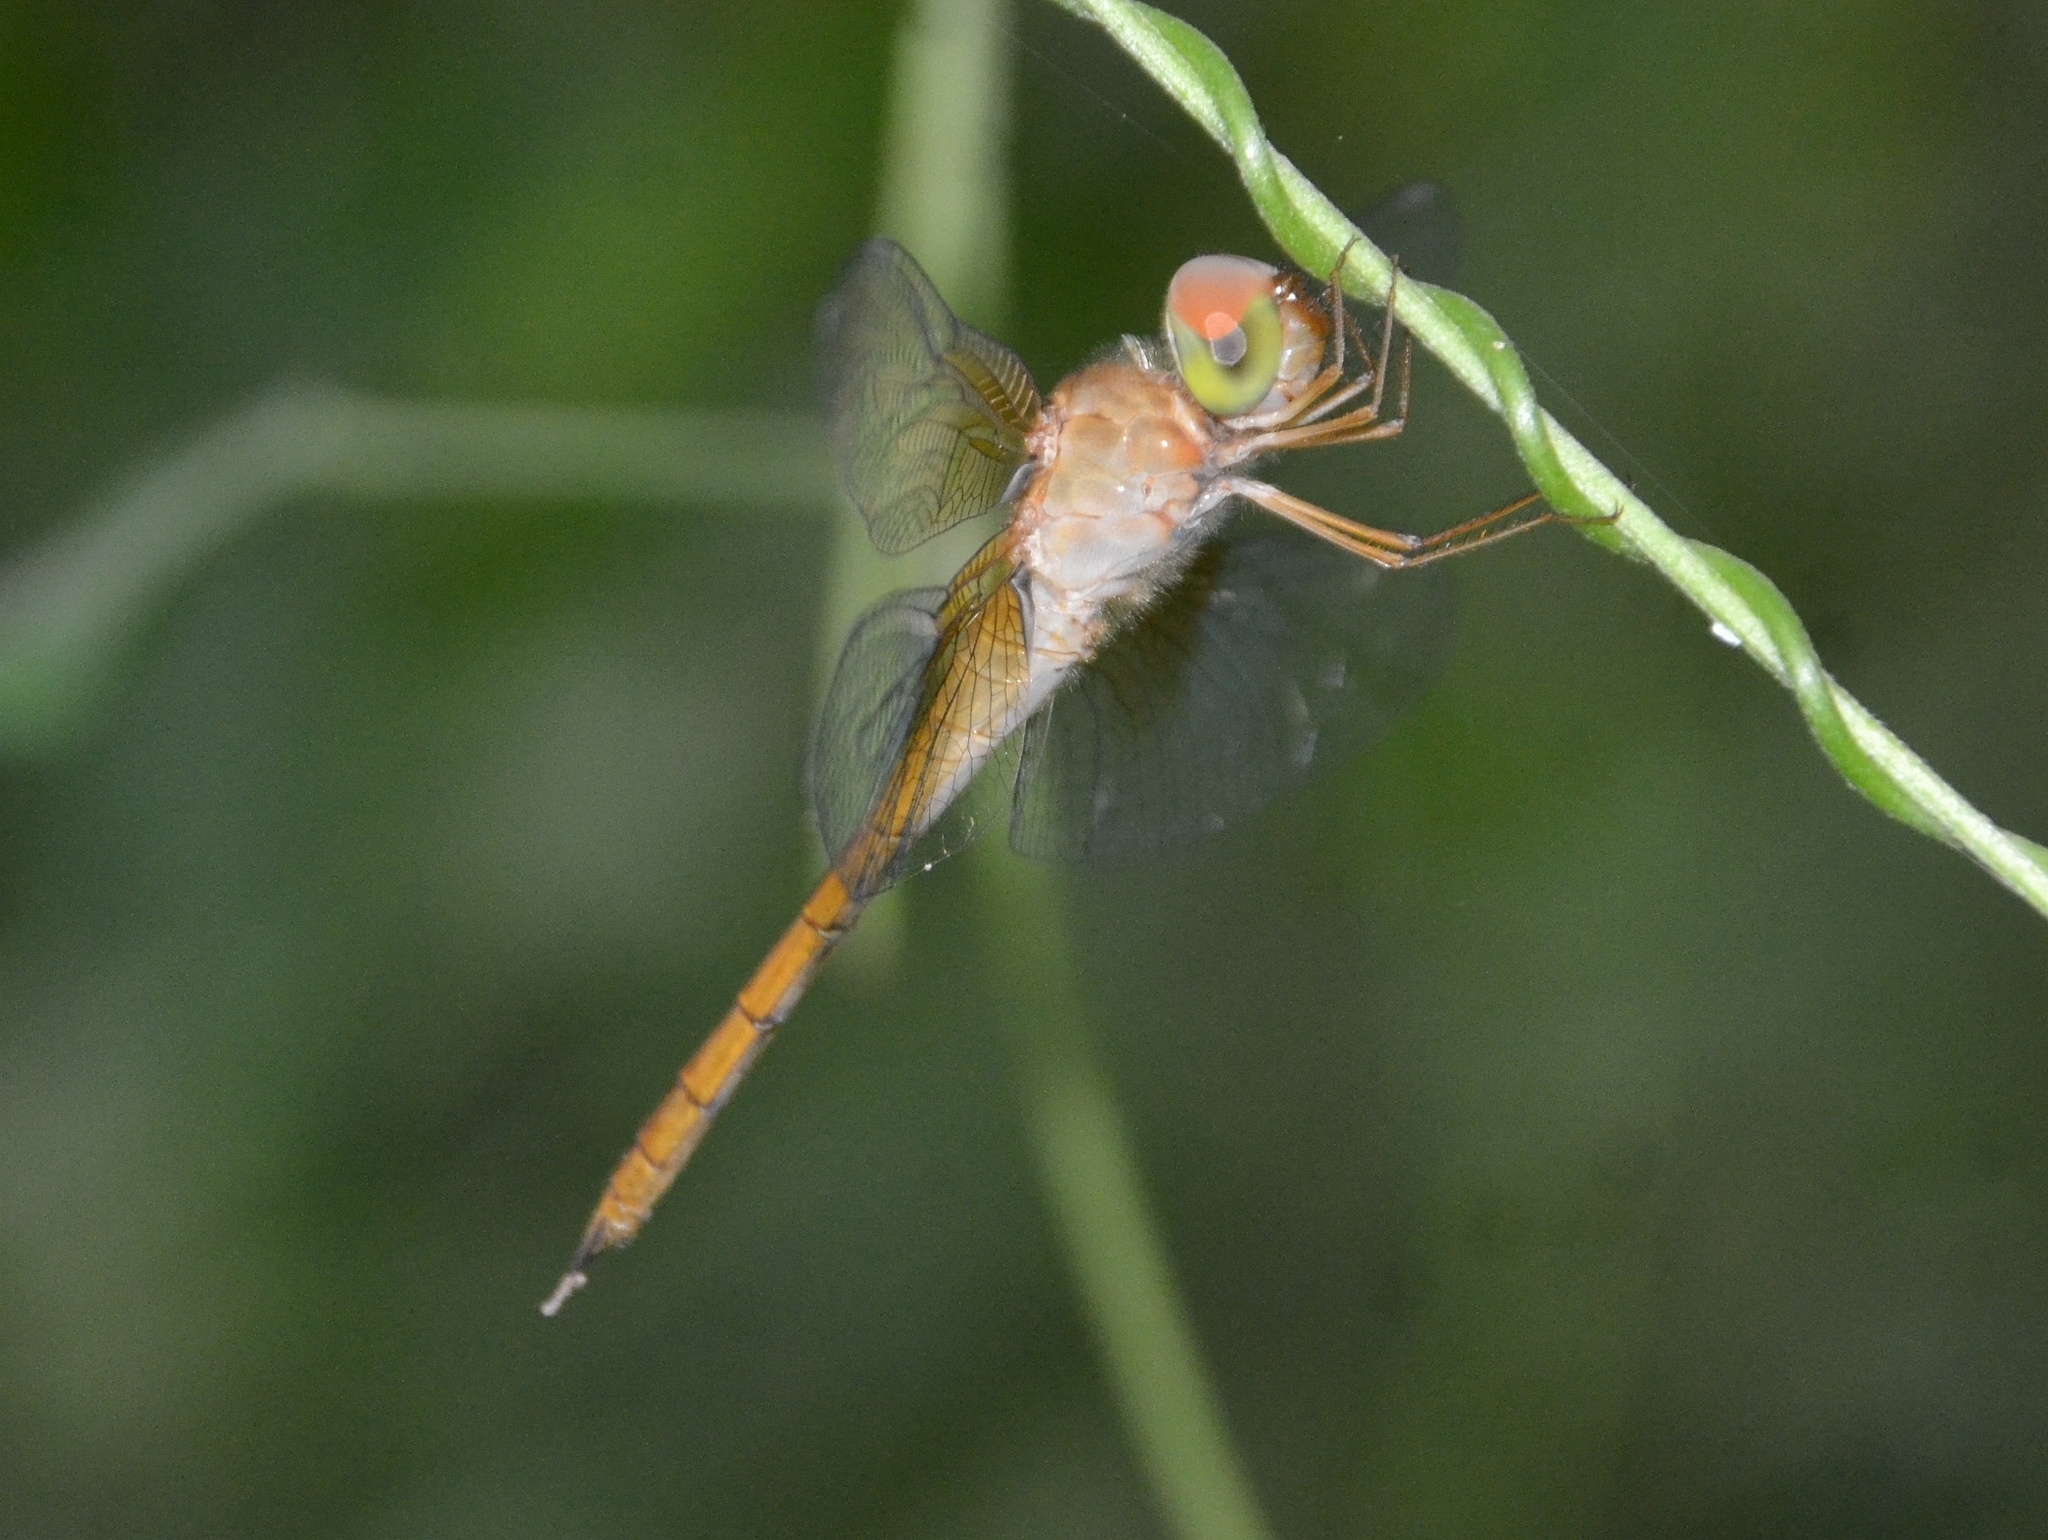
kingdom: Animalia
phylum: Arthropoda
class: Insecta
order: Odonata
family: Libellulidae
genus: Tholymis
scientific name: Tholymis tillarga
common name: Coral-tailed cloud wing
